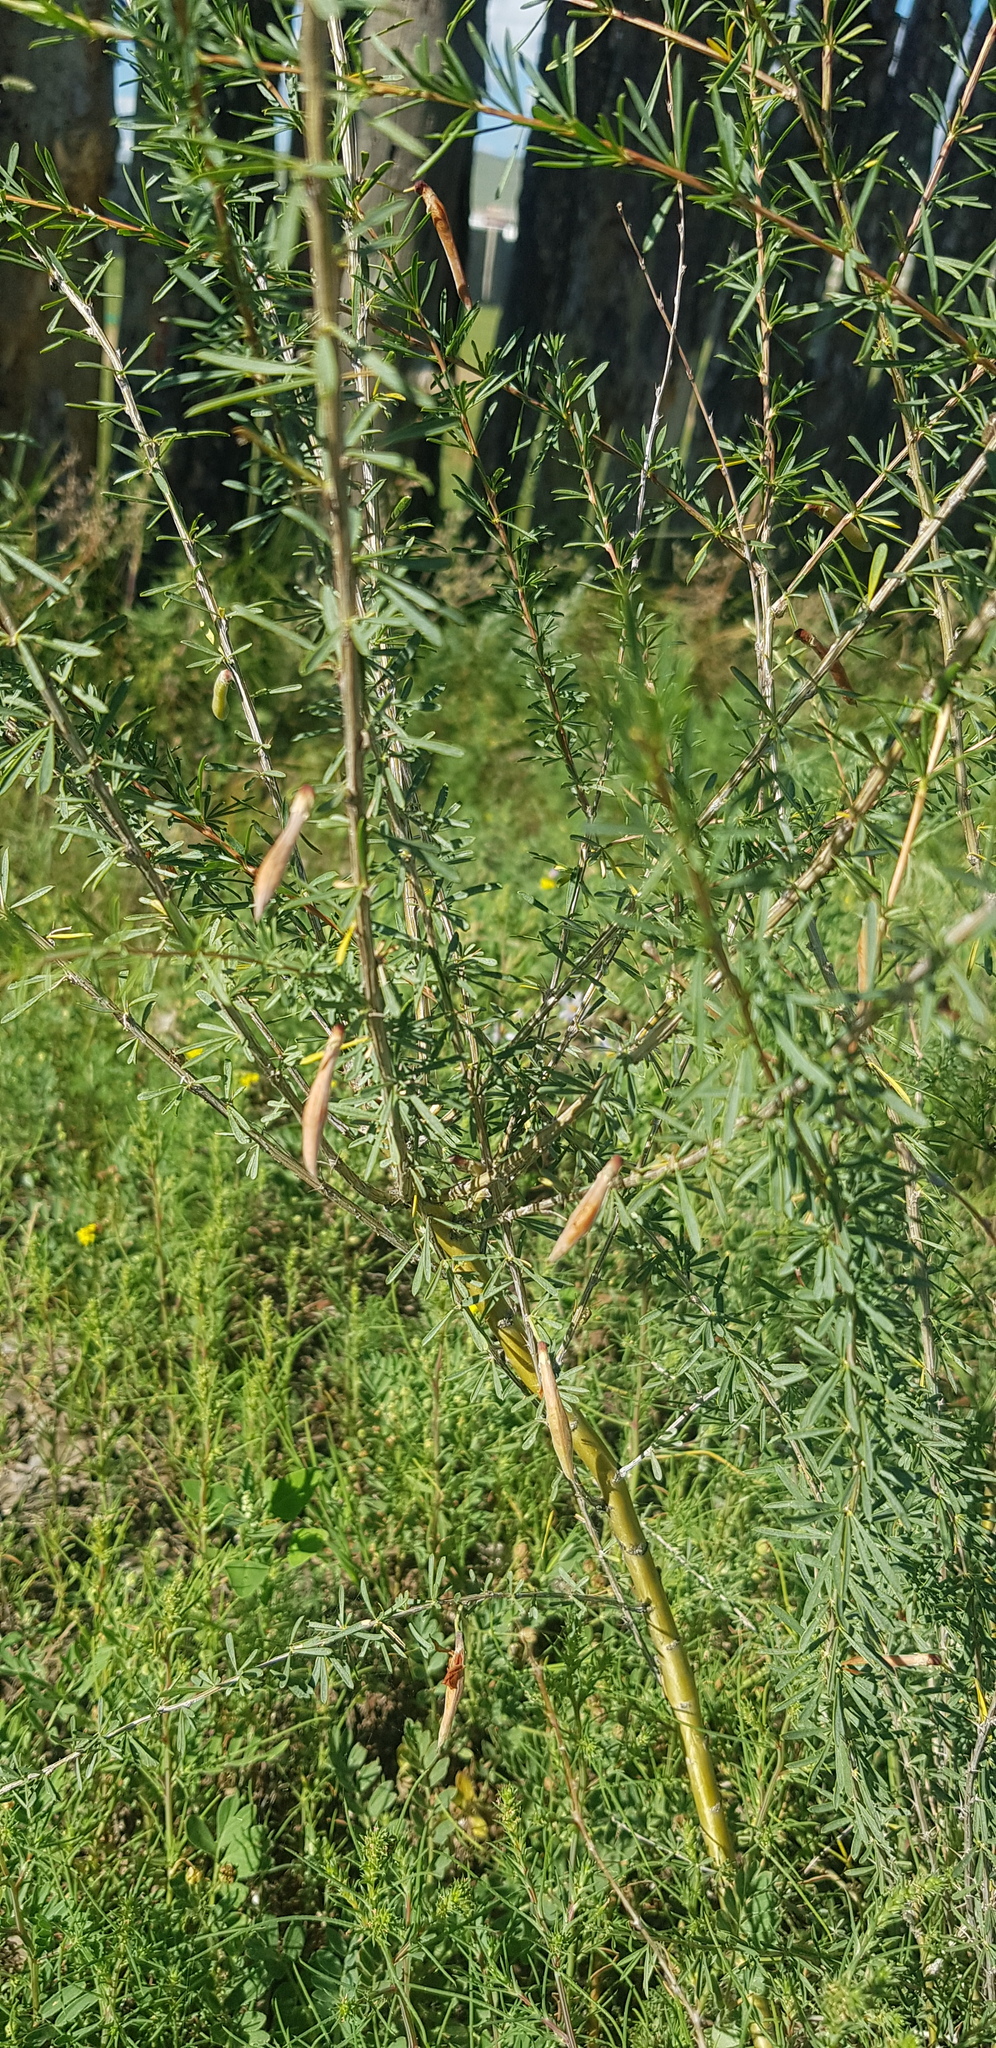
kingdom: Plantae
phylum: Tracheophyta
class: Magnoliopsida
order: Fabales
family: Fabaceae
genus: Caragana
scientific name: Caragana stenophylla
